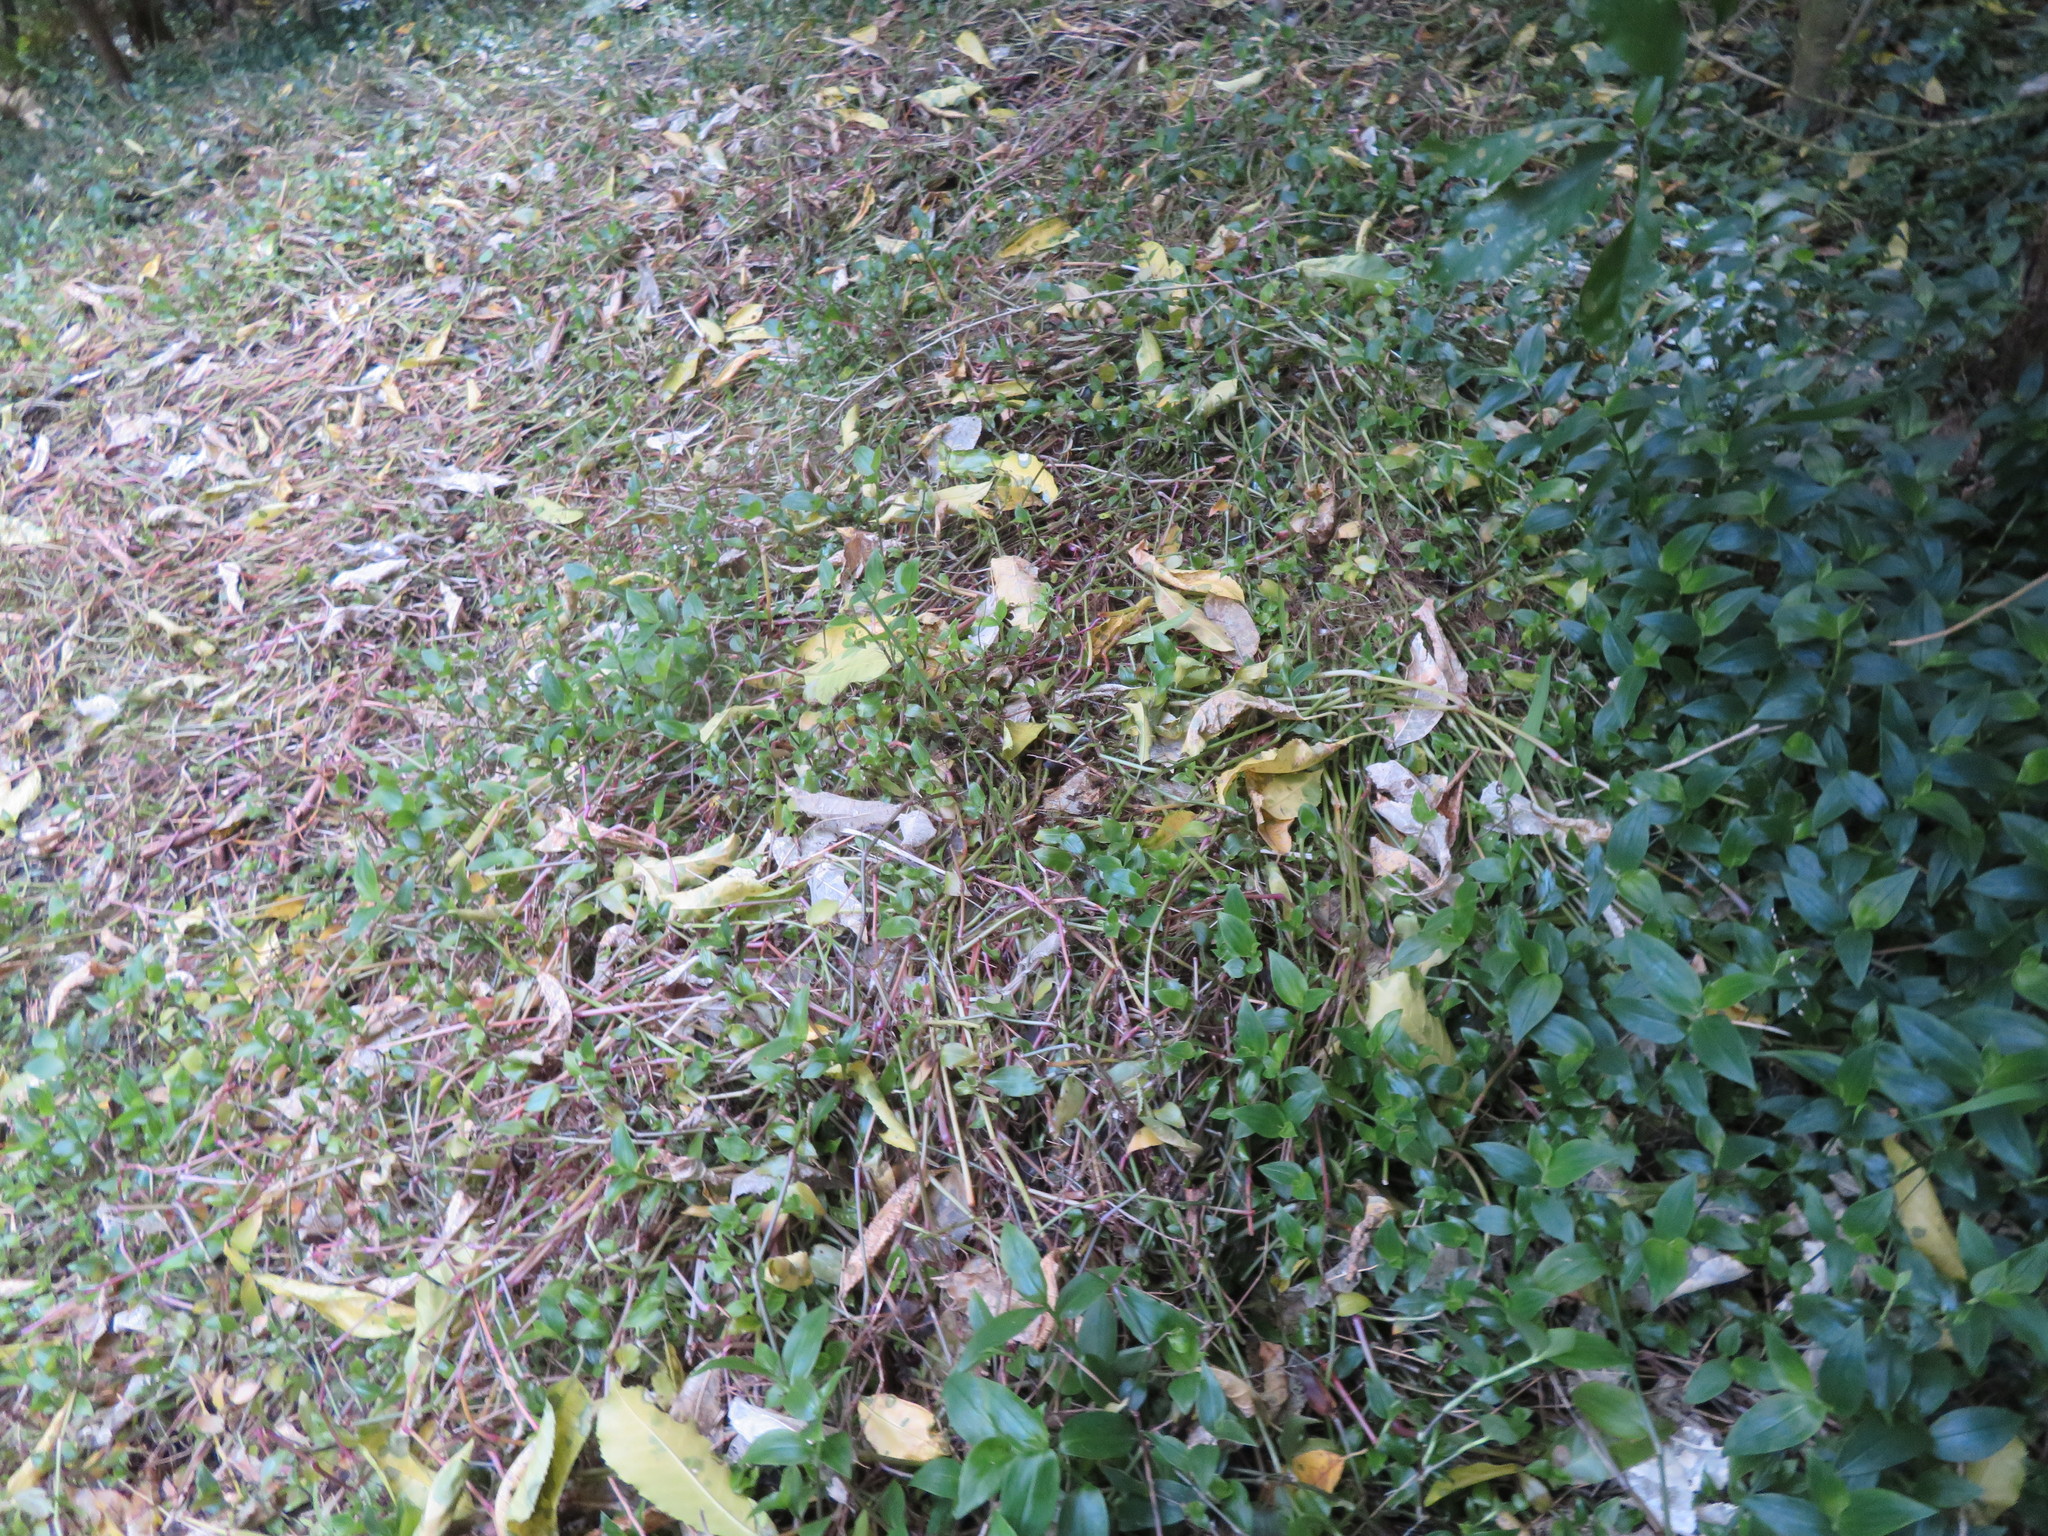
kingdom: Plantae
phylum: Tracheophyta
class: Liliopsida
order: Commelinales
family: Commelinaceae
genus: Tradescantia
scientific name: Tradescantia fluminensis
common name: Wandering-jew
